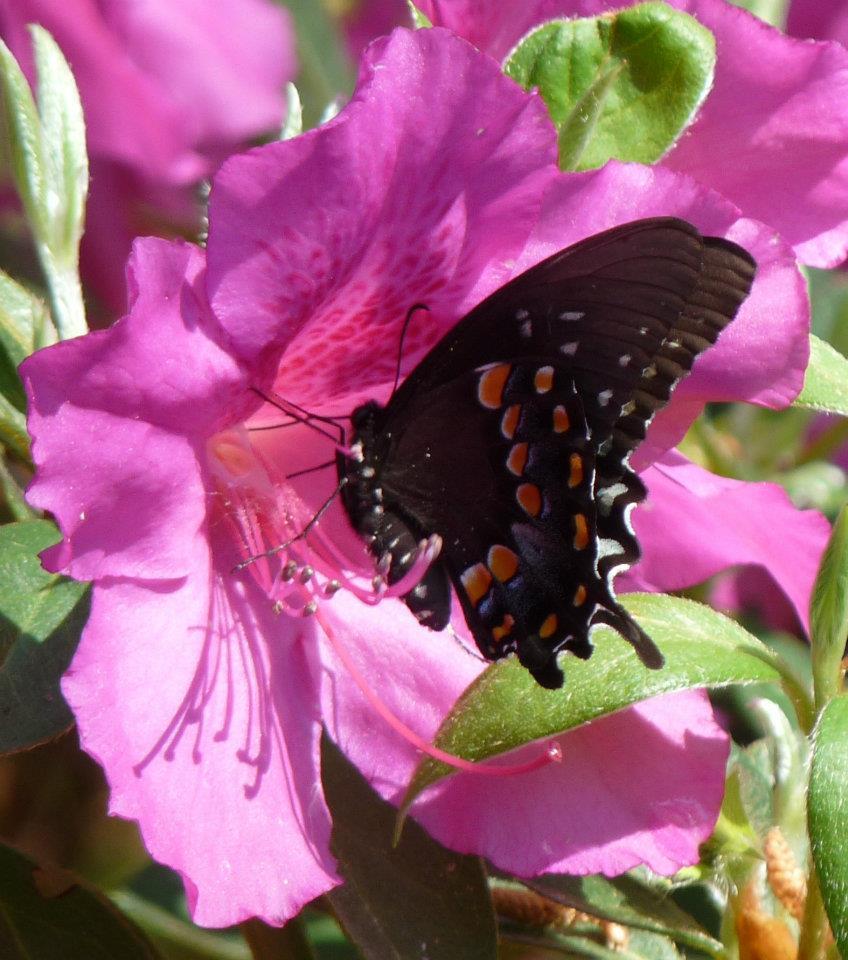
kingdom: Animalia
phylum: Arthropoda
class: Insecta
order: Lepidoptera
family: Papilionidae
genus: Papilio
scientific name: Papilio troilus
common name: Spicebush swallowtail
